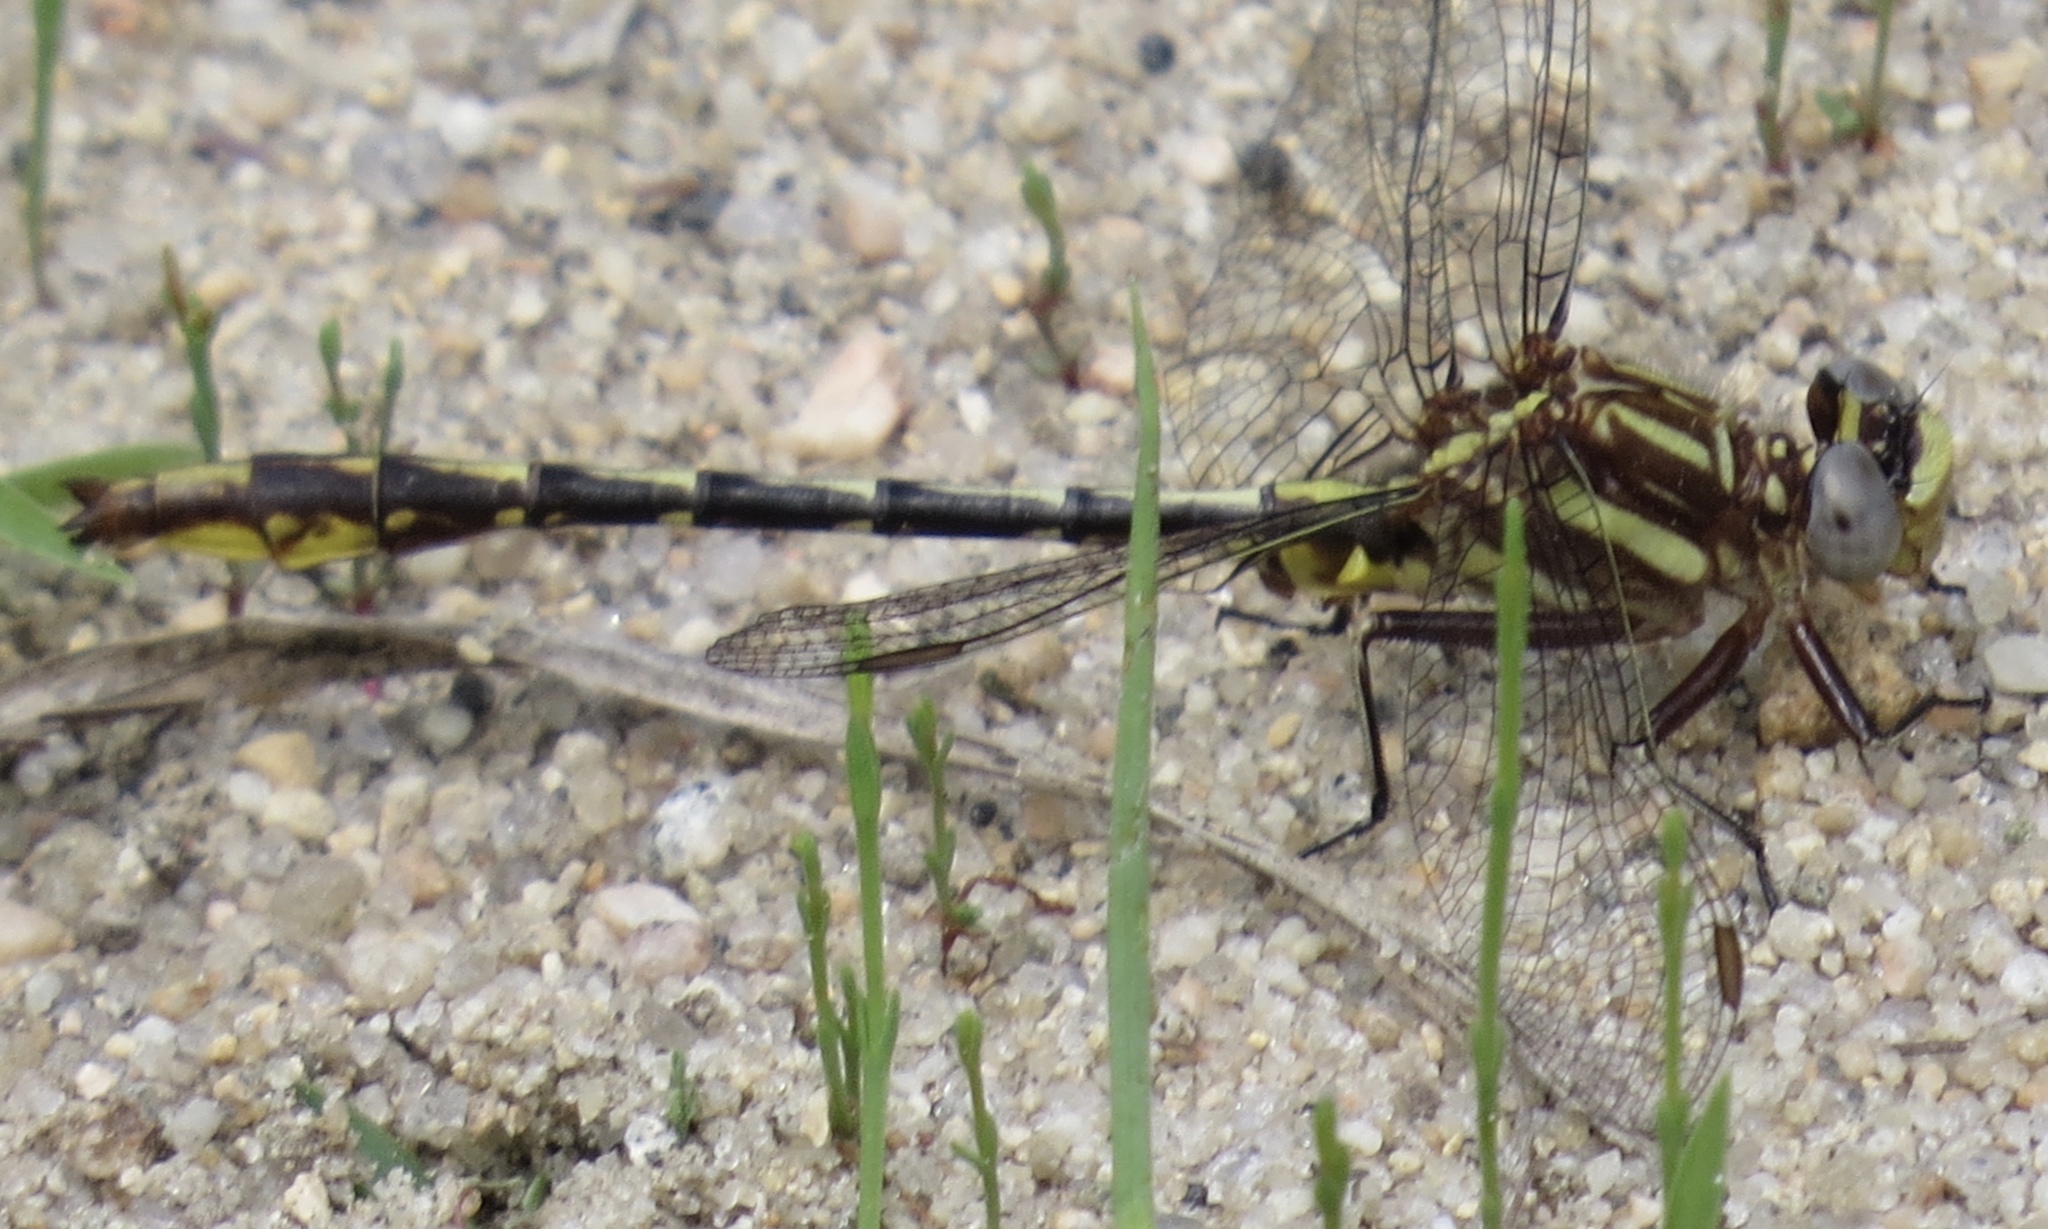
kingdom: Animalia
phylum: Arthropoda
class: Insecta
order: Odonata
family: Gomphidae
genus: Phanogomphus
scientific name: Phanogomphus exilis
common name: Lancet clubtail
